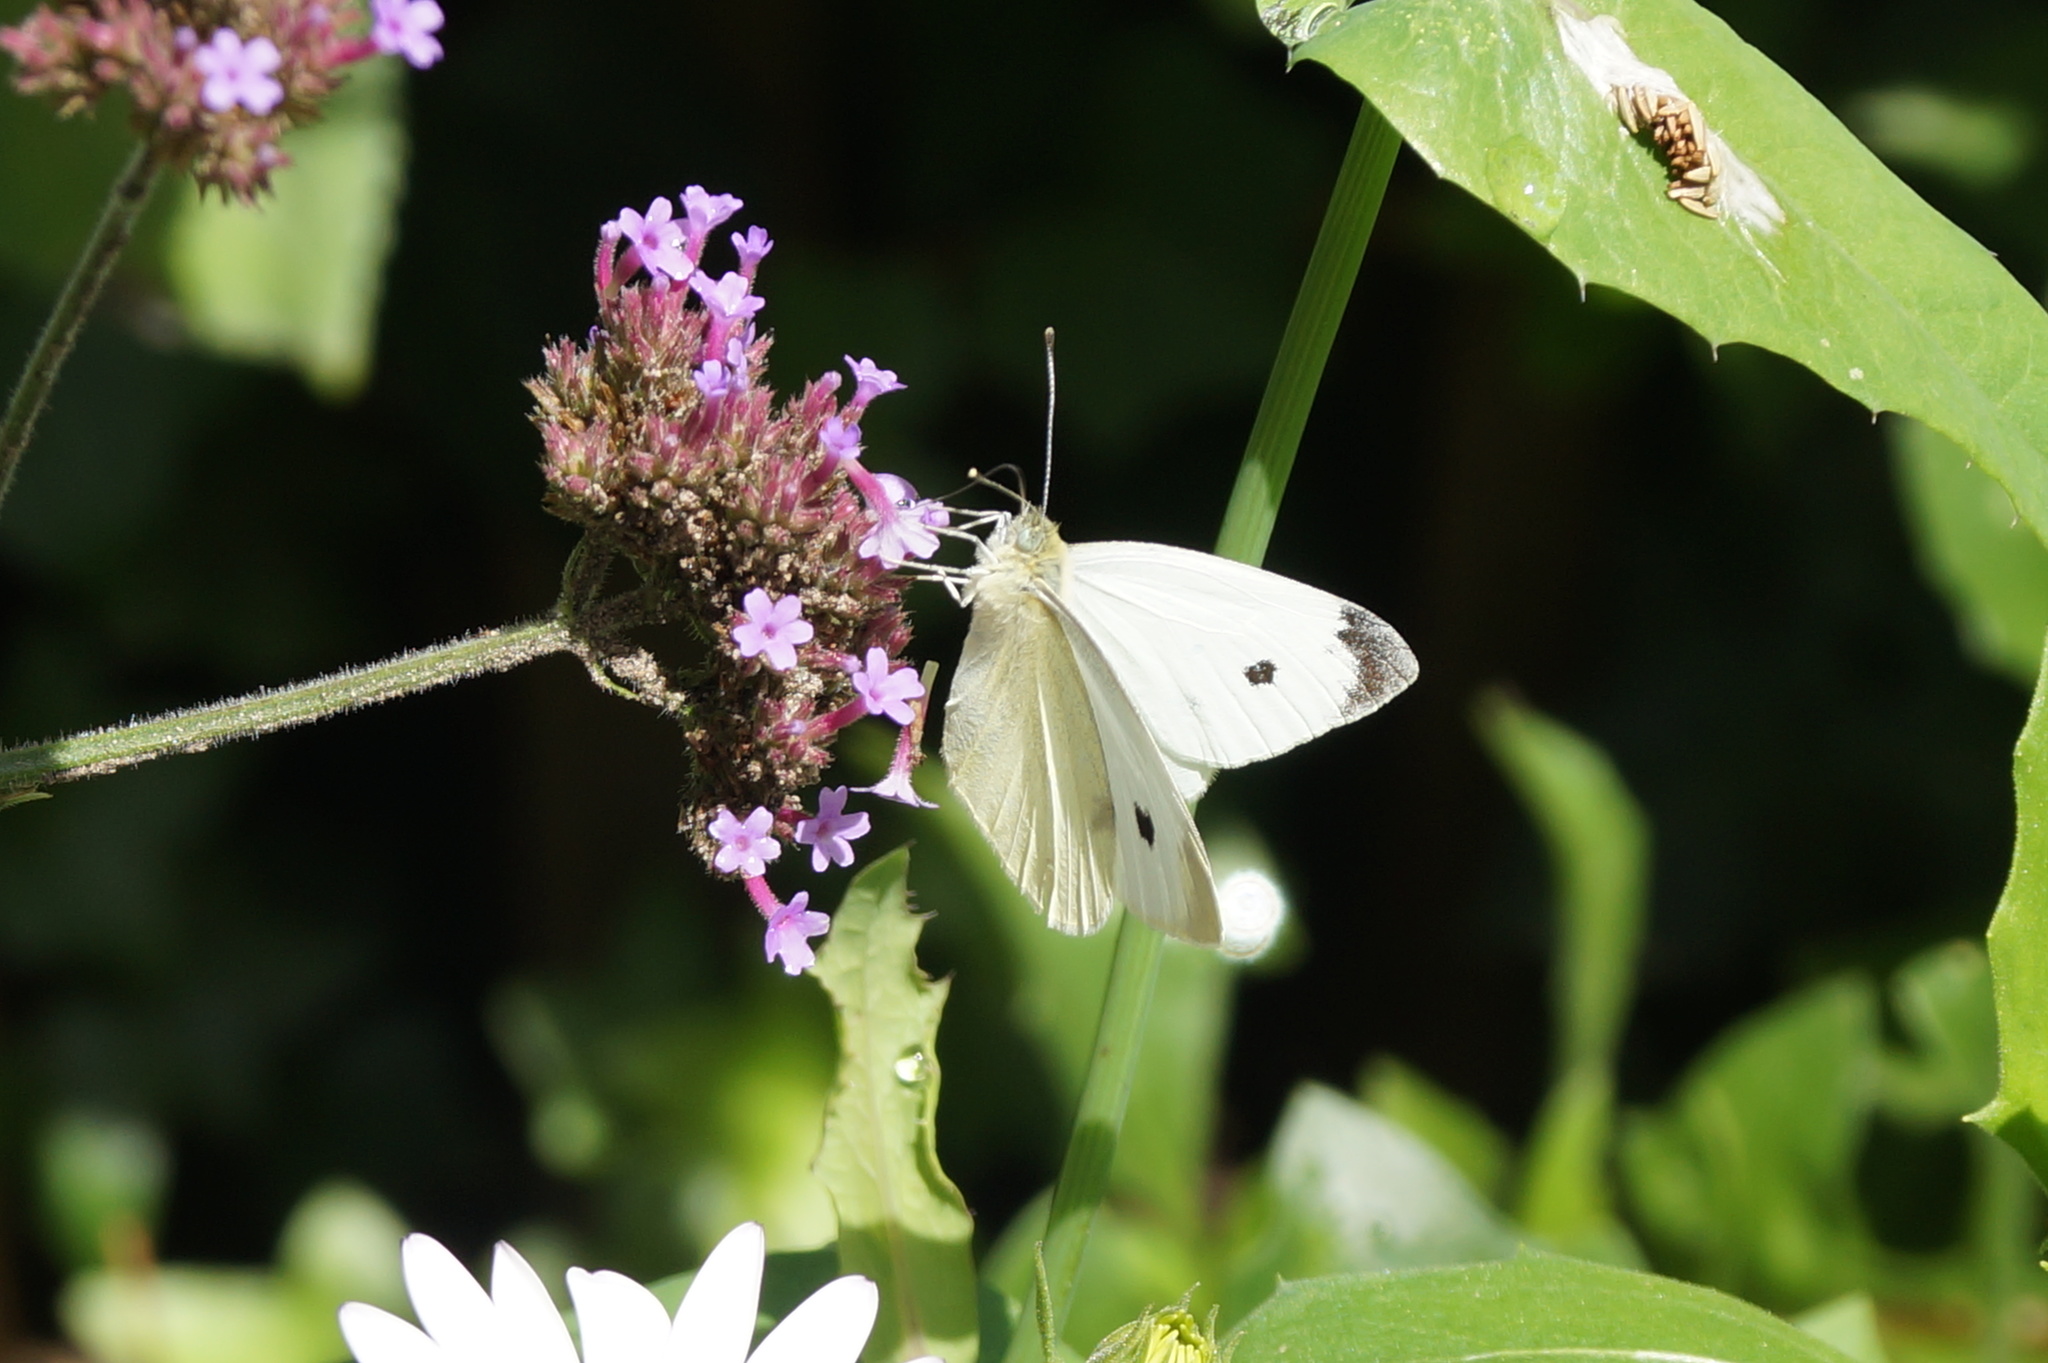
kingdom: Animalia
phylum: Arthropoda
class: Insecta
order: Lepidoptera
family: Pieridae
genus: Pieris
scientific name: Pieris rapae
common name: Small white
